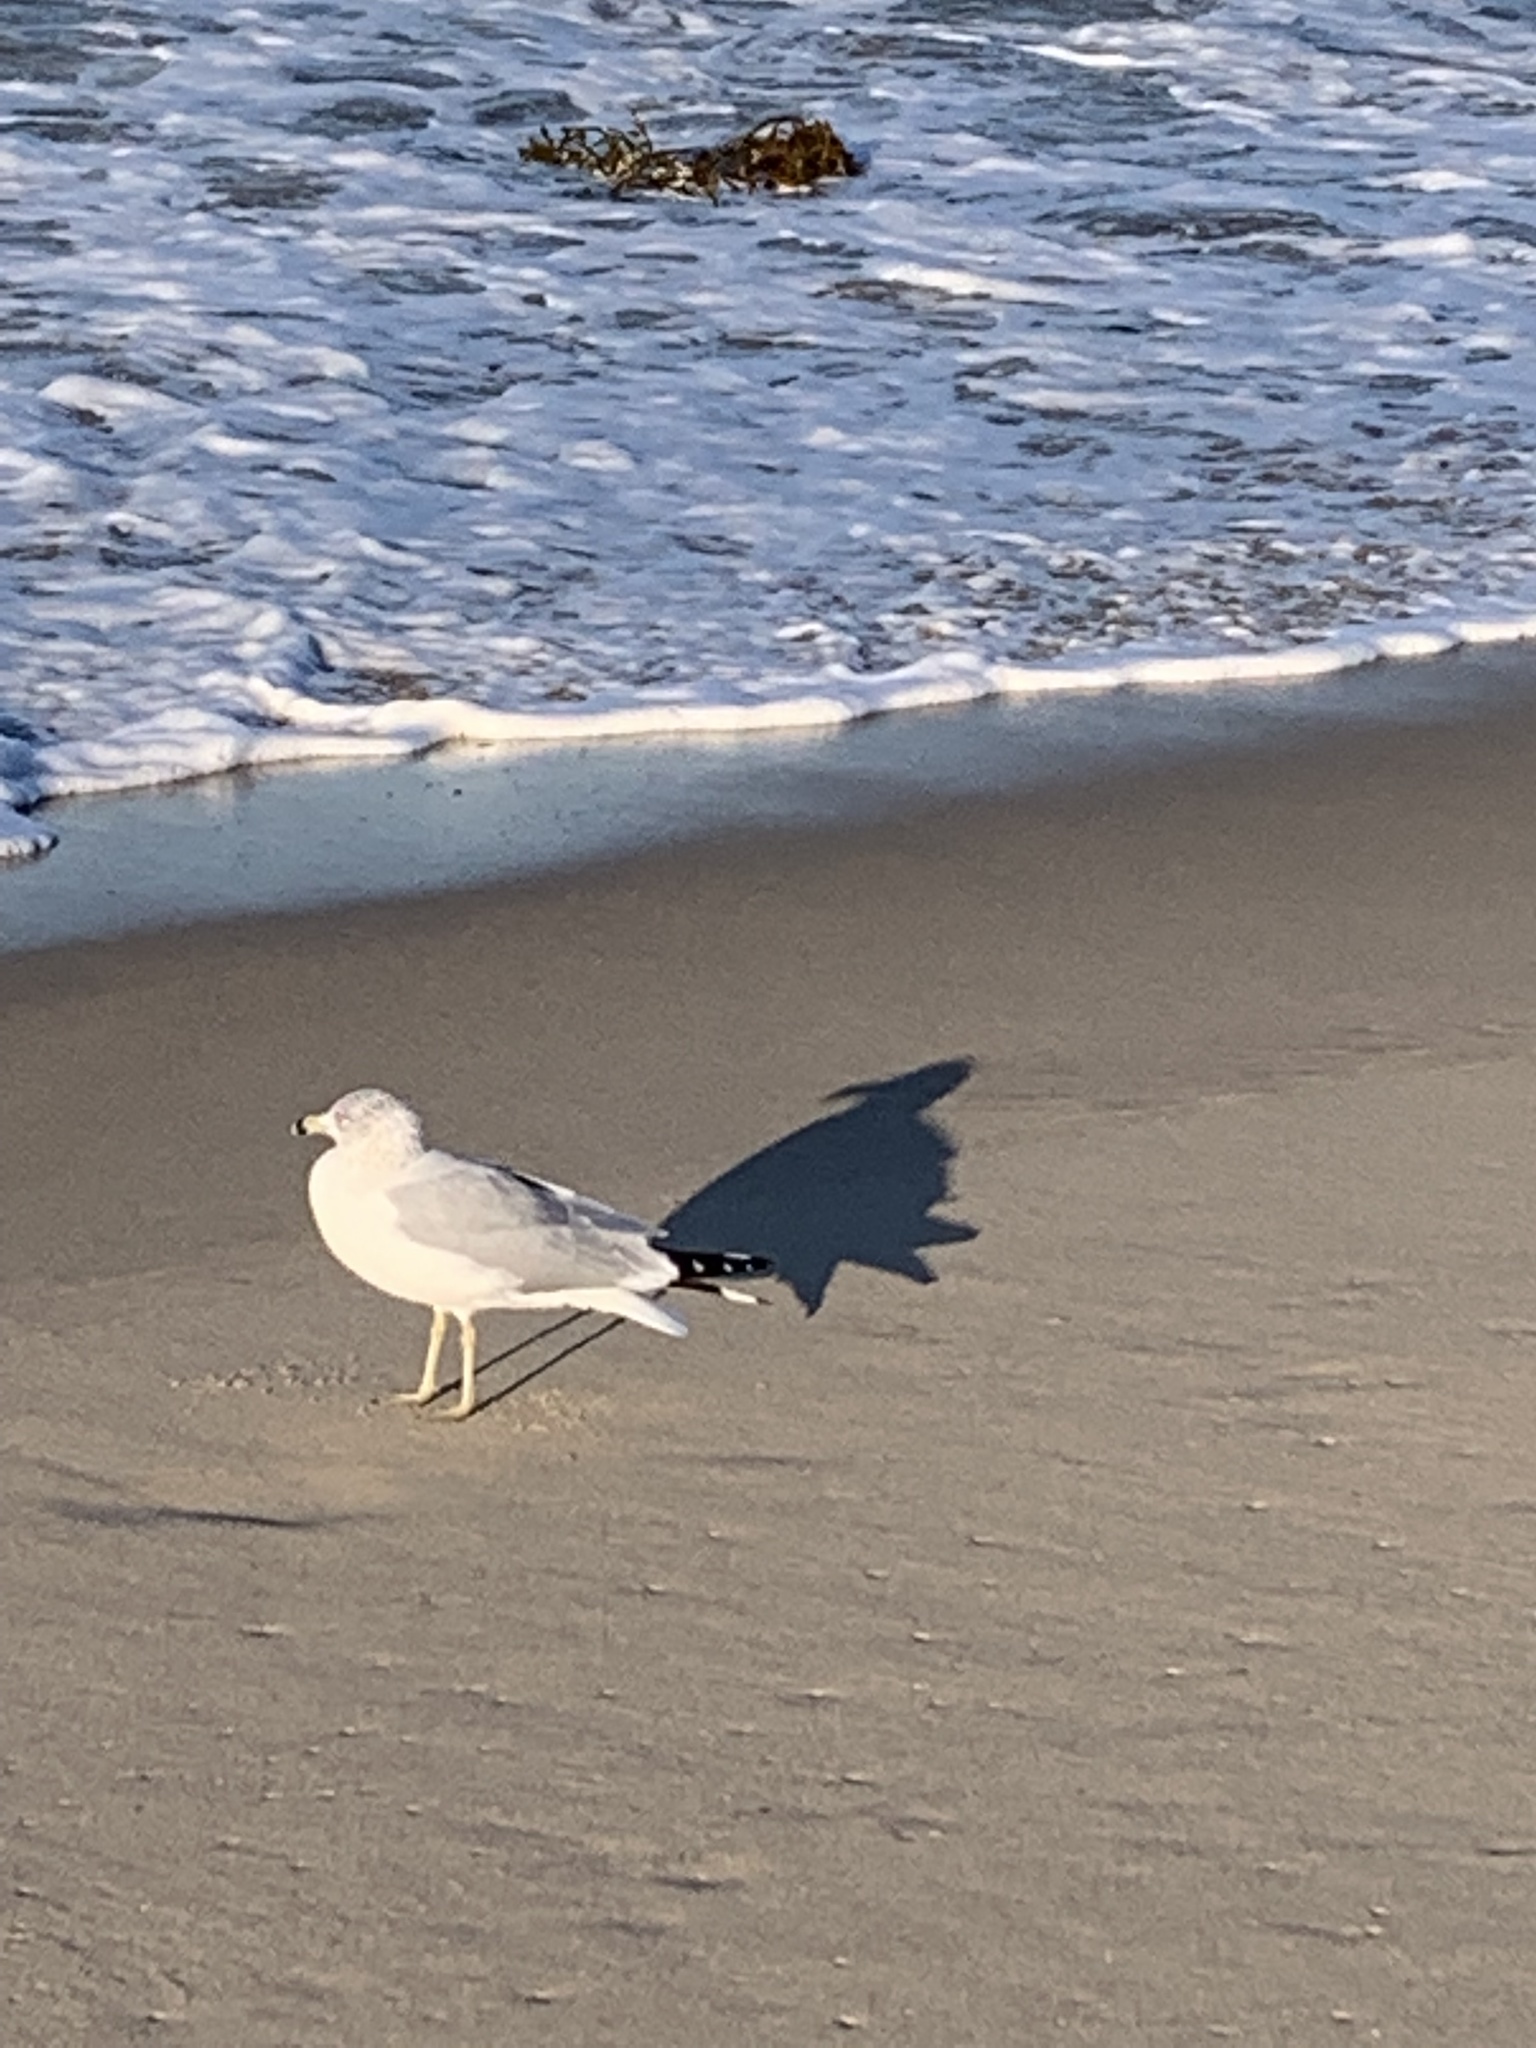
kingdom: Animalia
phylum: Chordata
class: Aves
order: Charadriiformes
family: Laridae
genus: Larus
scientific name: Larus delawarensis
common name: Ring-billed gull
